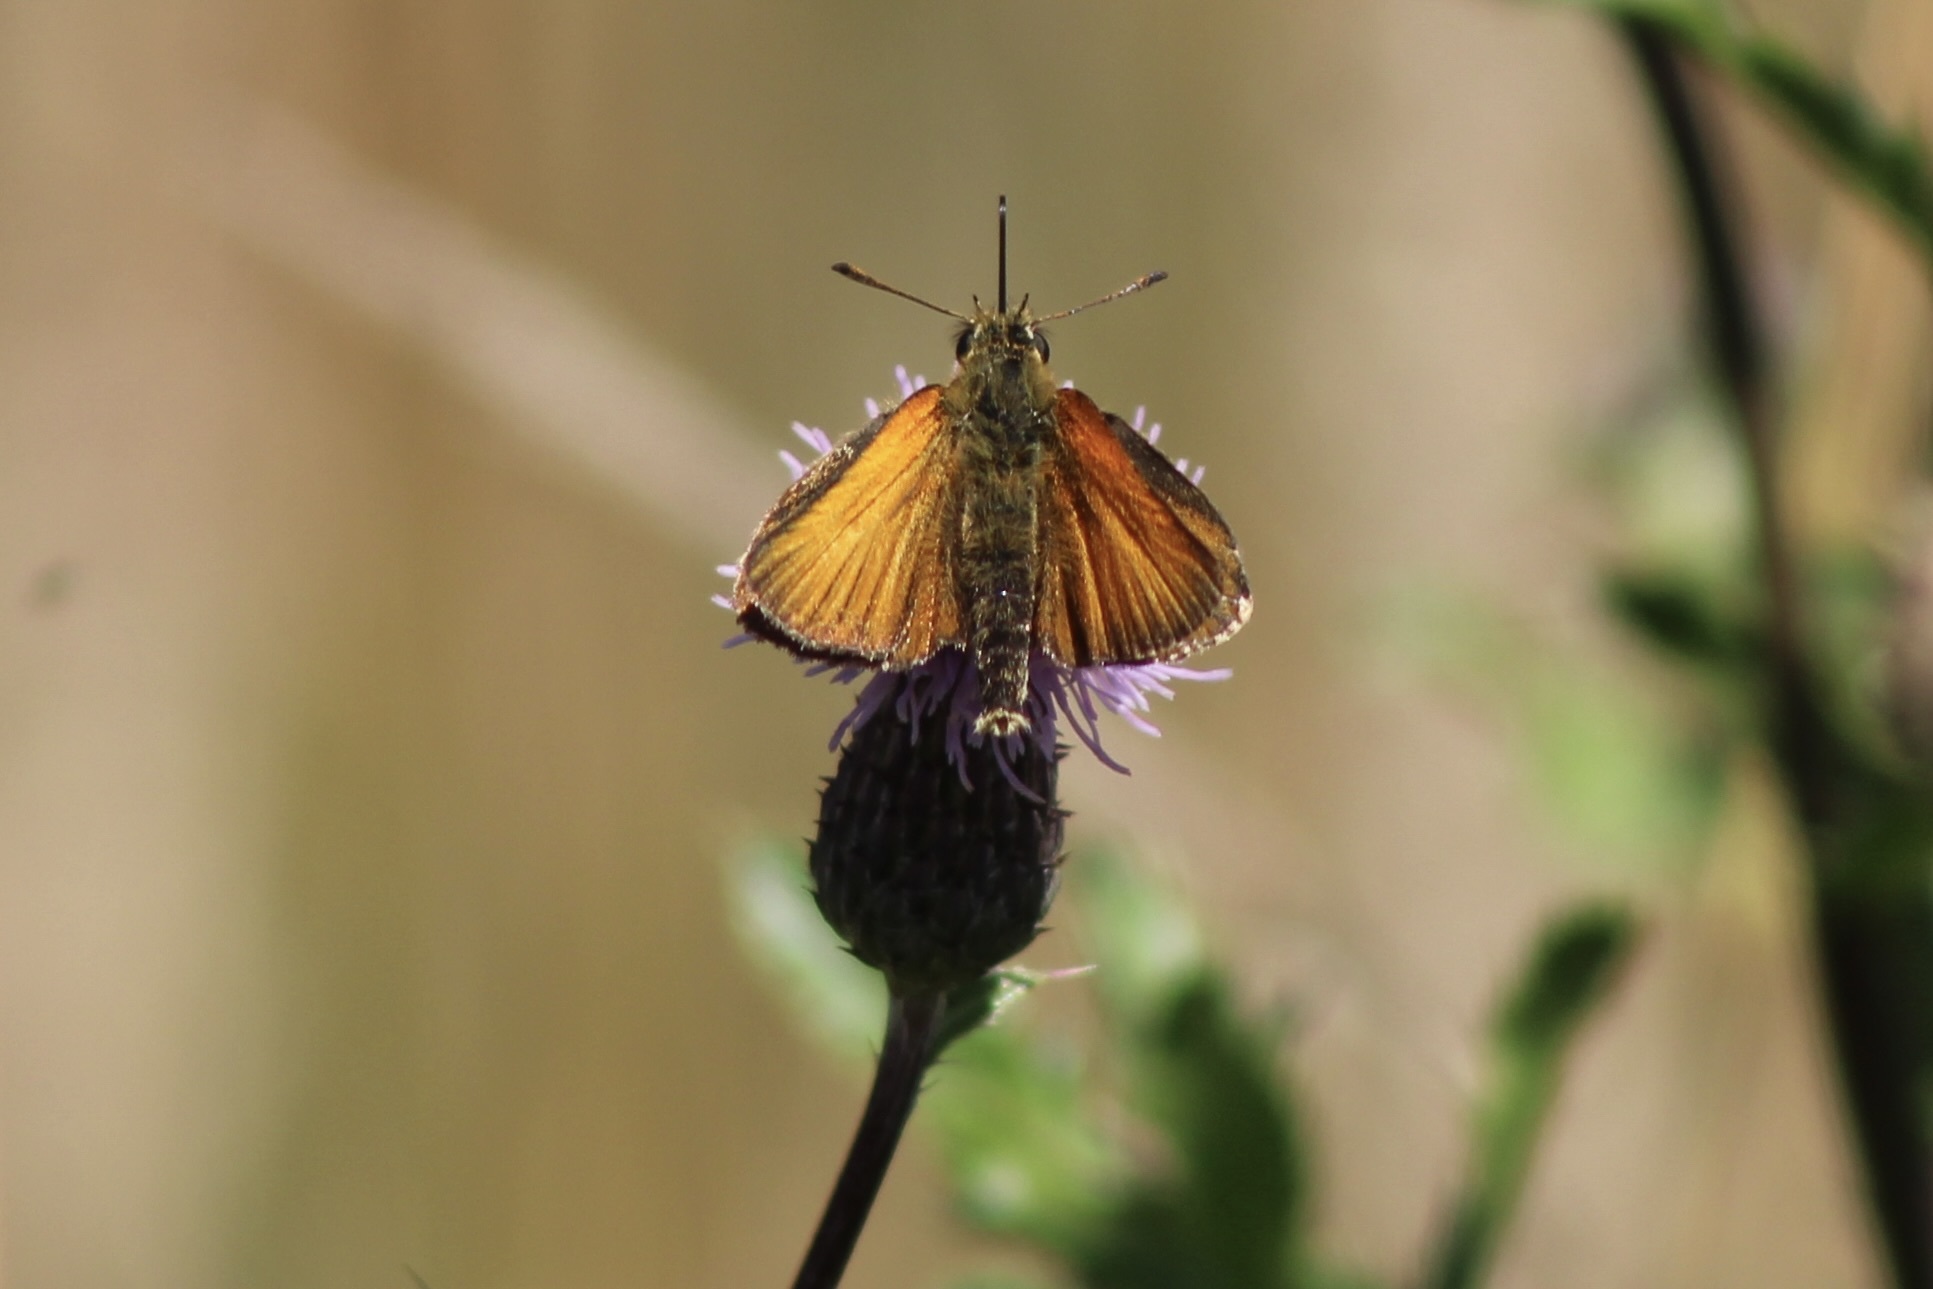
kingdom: Animalia
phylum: Arthropoda
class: Insecta
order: Lepidoptera
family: Hesperiidae
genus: Thymelicus
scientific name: Thymelicus lineola
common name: Essex skipper
